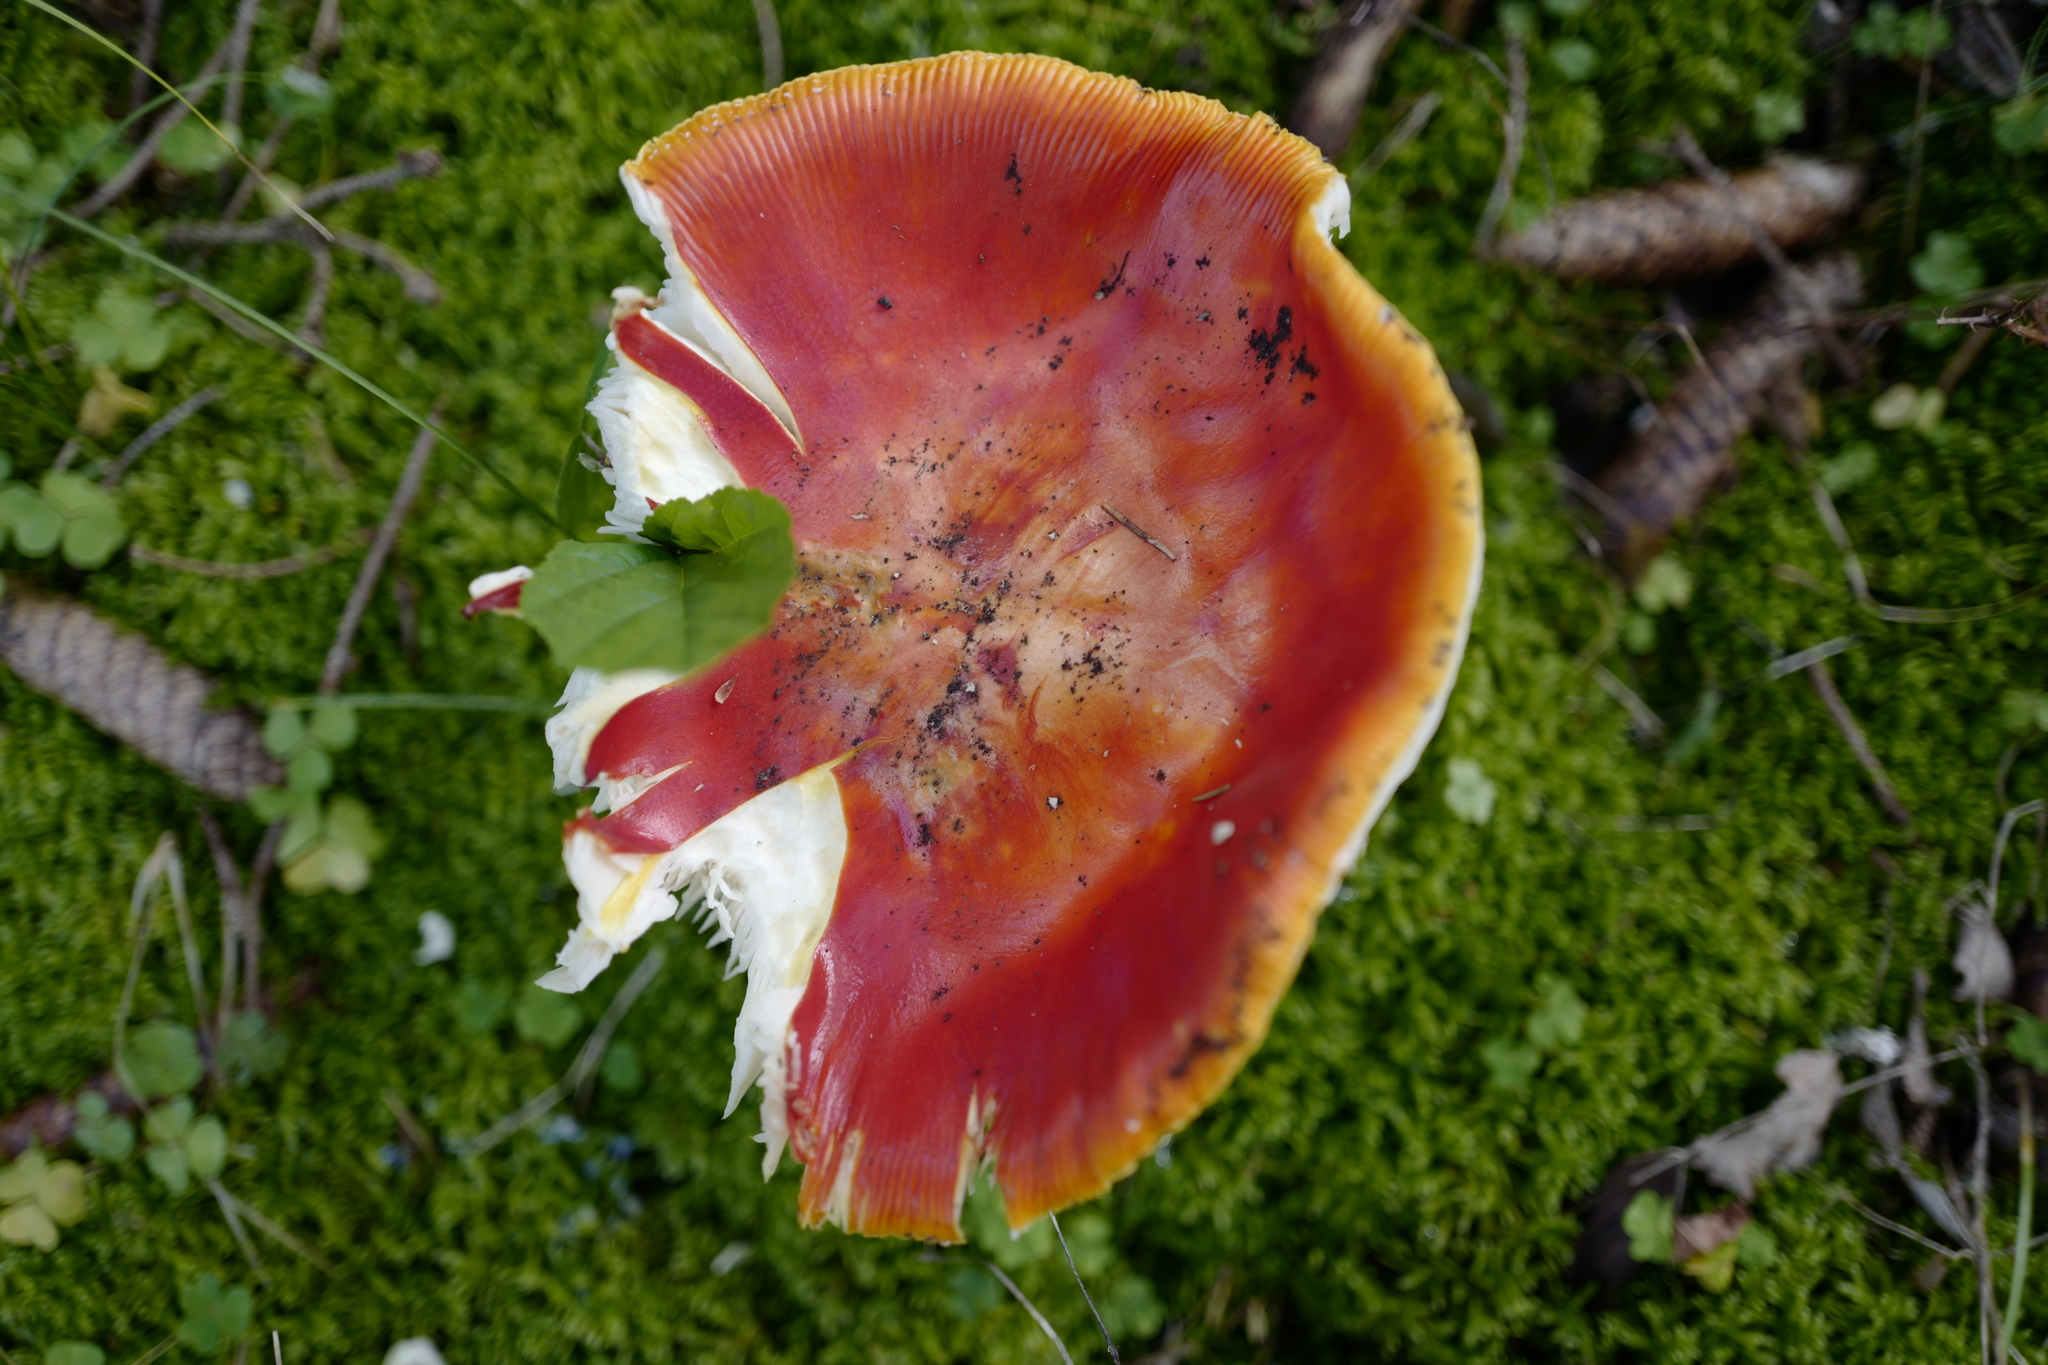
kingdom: Fungi
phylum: Basidiomycota
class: Agaricomycetes
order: Agaricales
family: Amanitaceae
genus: Amanita
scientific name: Amanita muscaria
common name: Fly agaric
